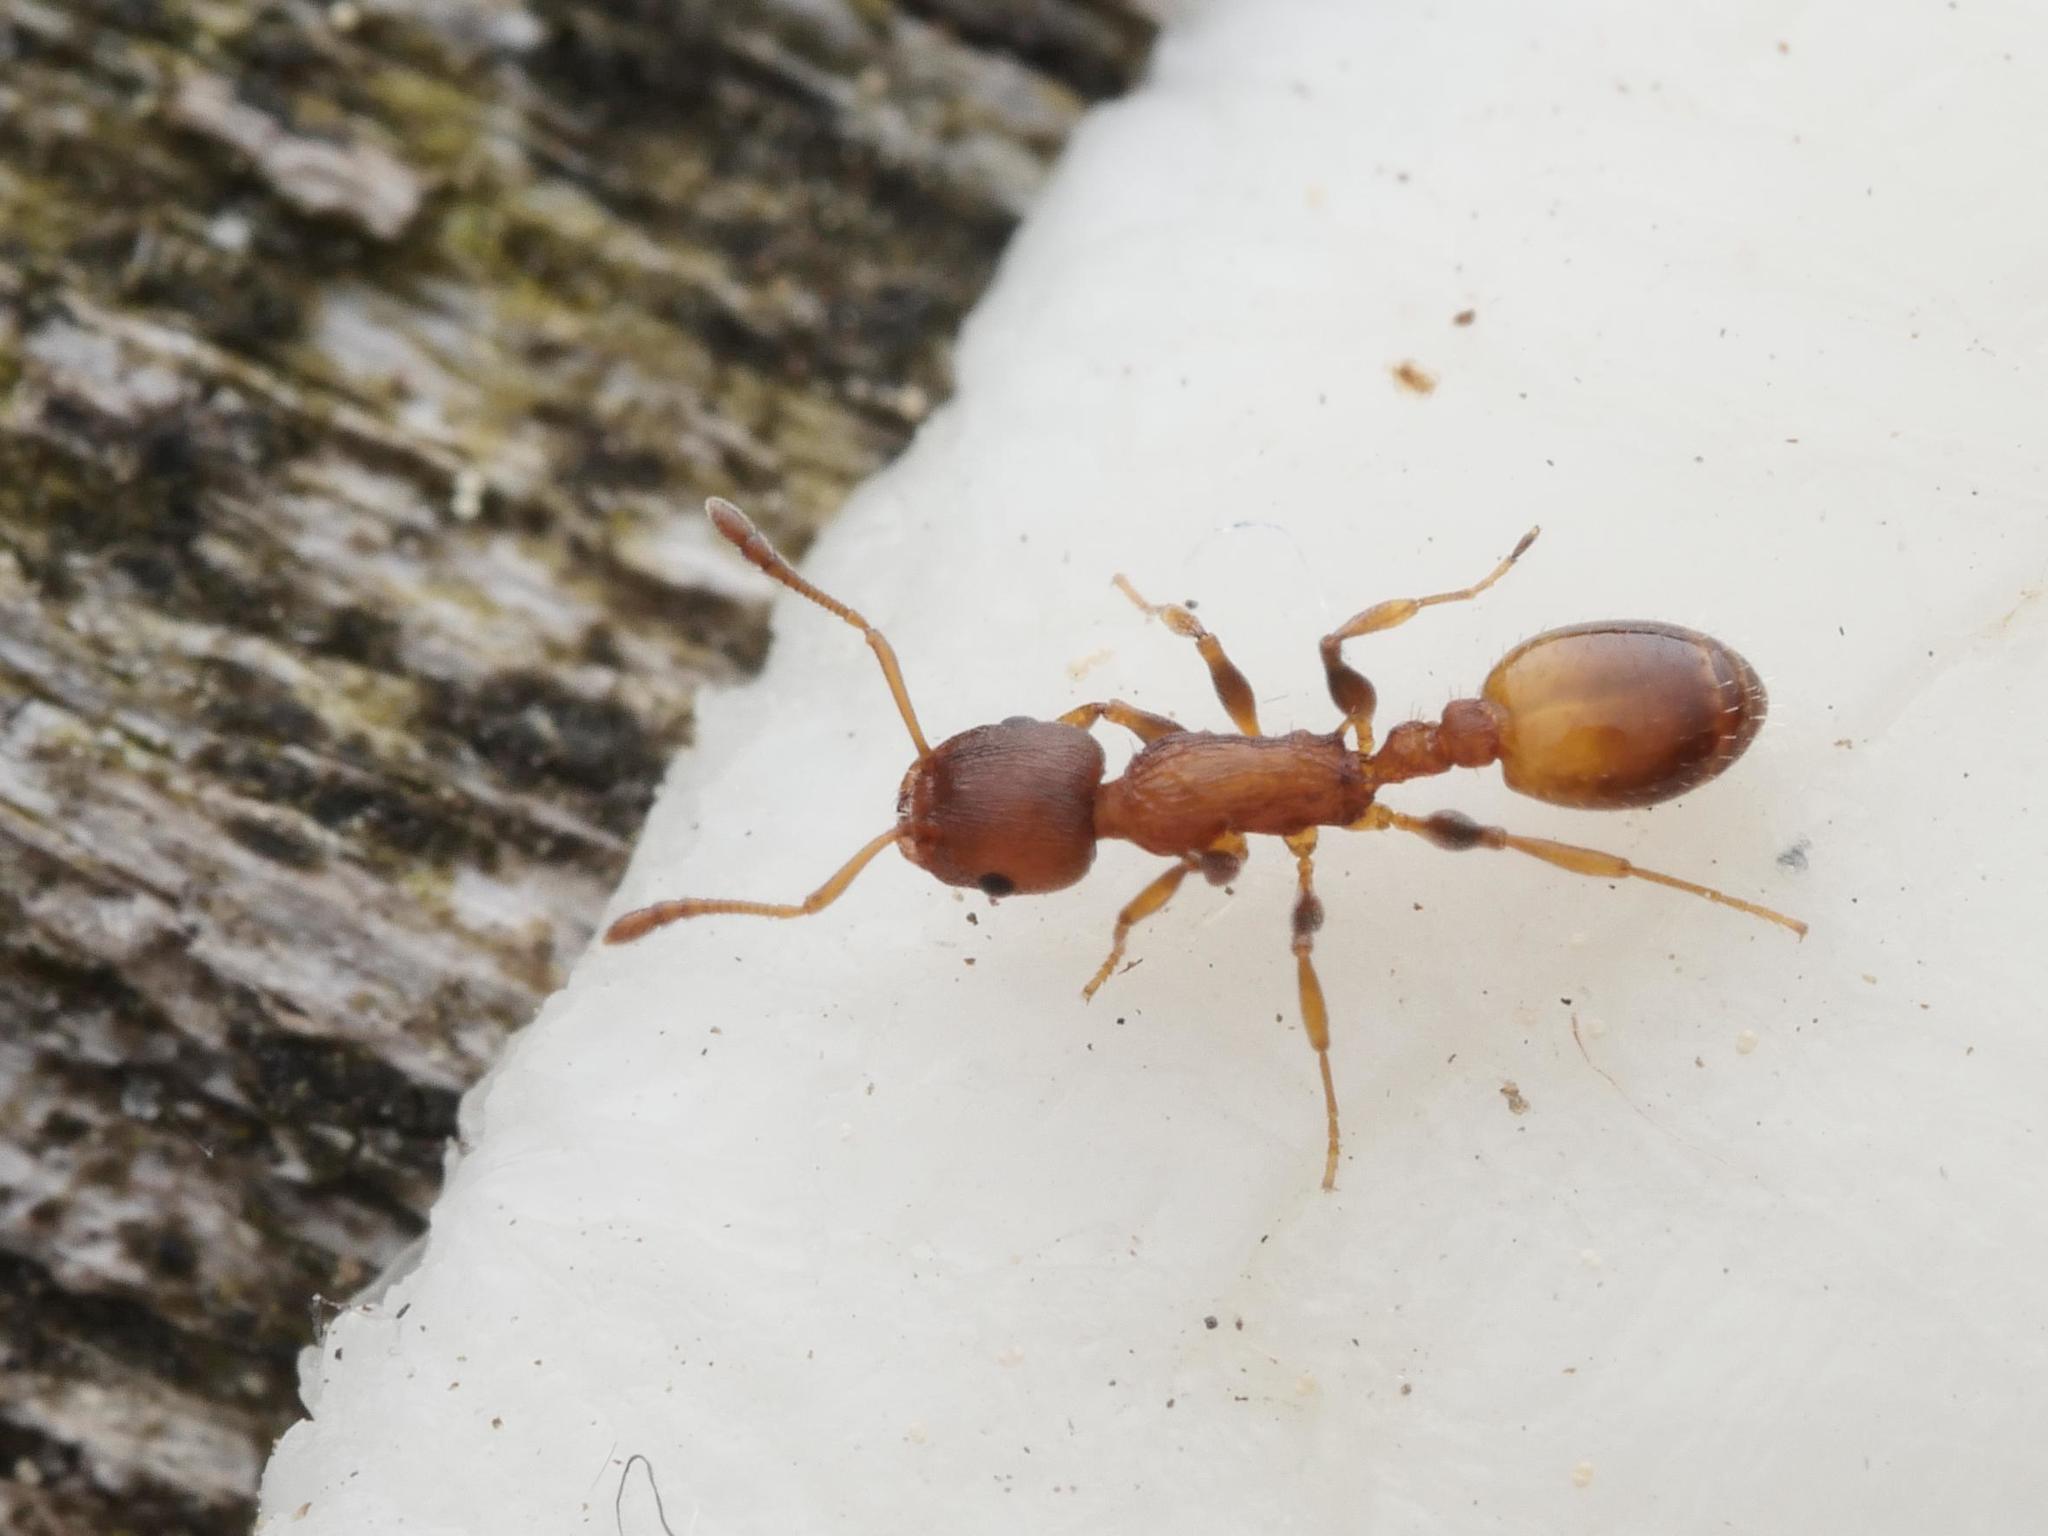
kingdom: Animalia
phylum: Arthropoda
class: Insecta
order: Hymenoptera
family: Formicidae
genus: Leptothorax
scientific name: Leptothorax affinis
